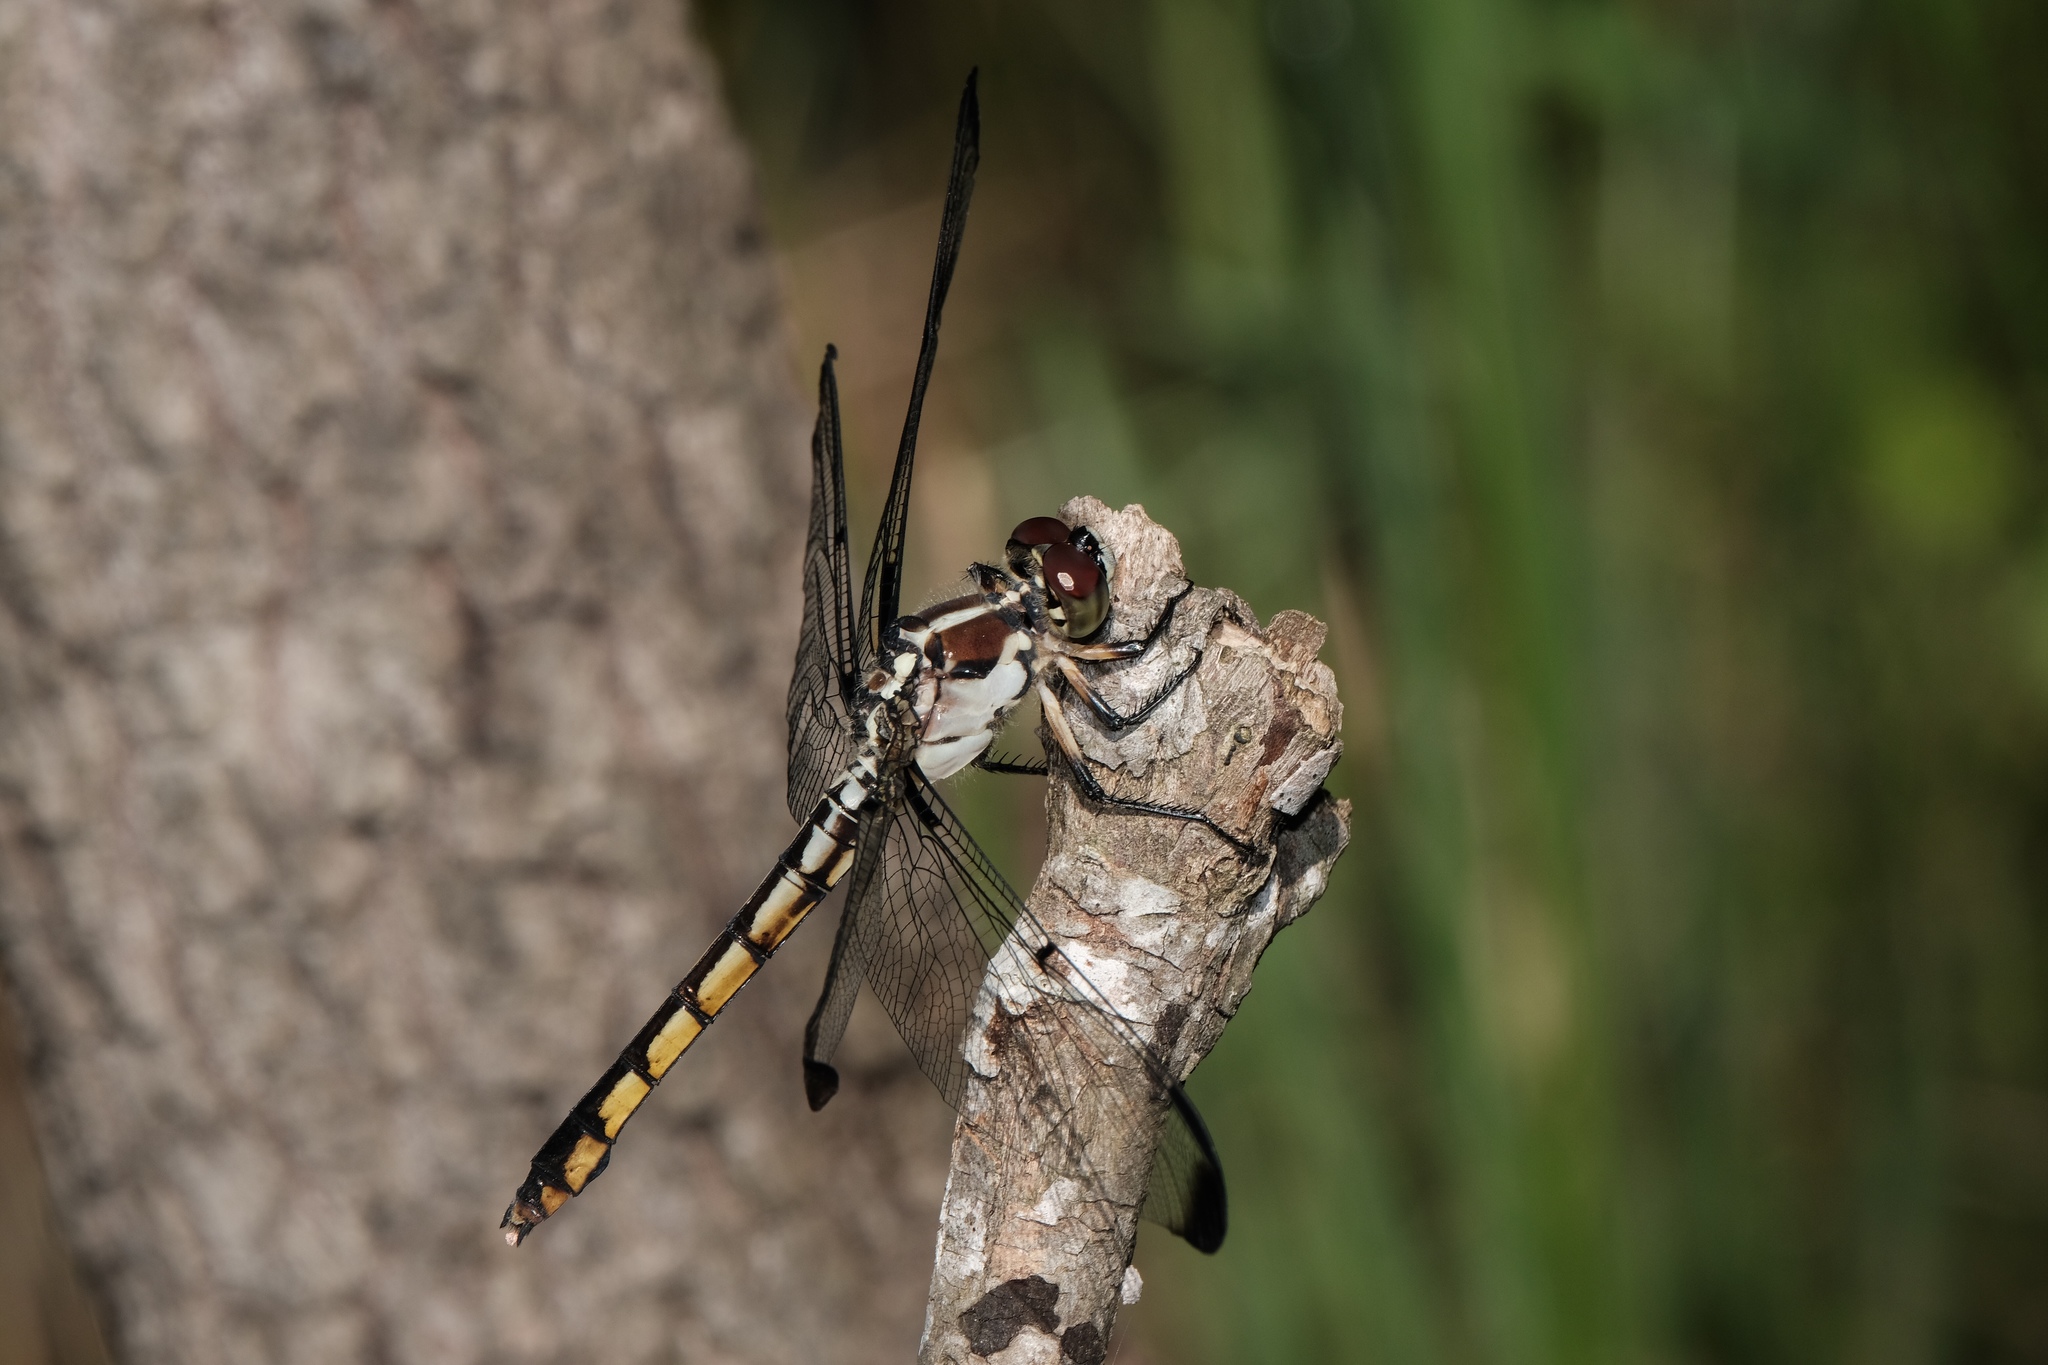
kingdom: Animalia
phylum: Arthropoda
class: Insecta
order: Odonata
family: Libellulidae
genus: Libellula
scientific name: Libellula vibrans
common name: Great blue skimmer
